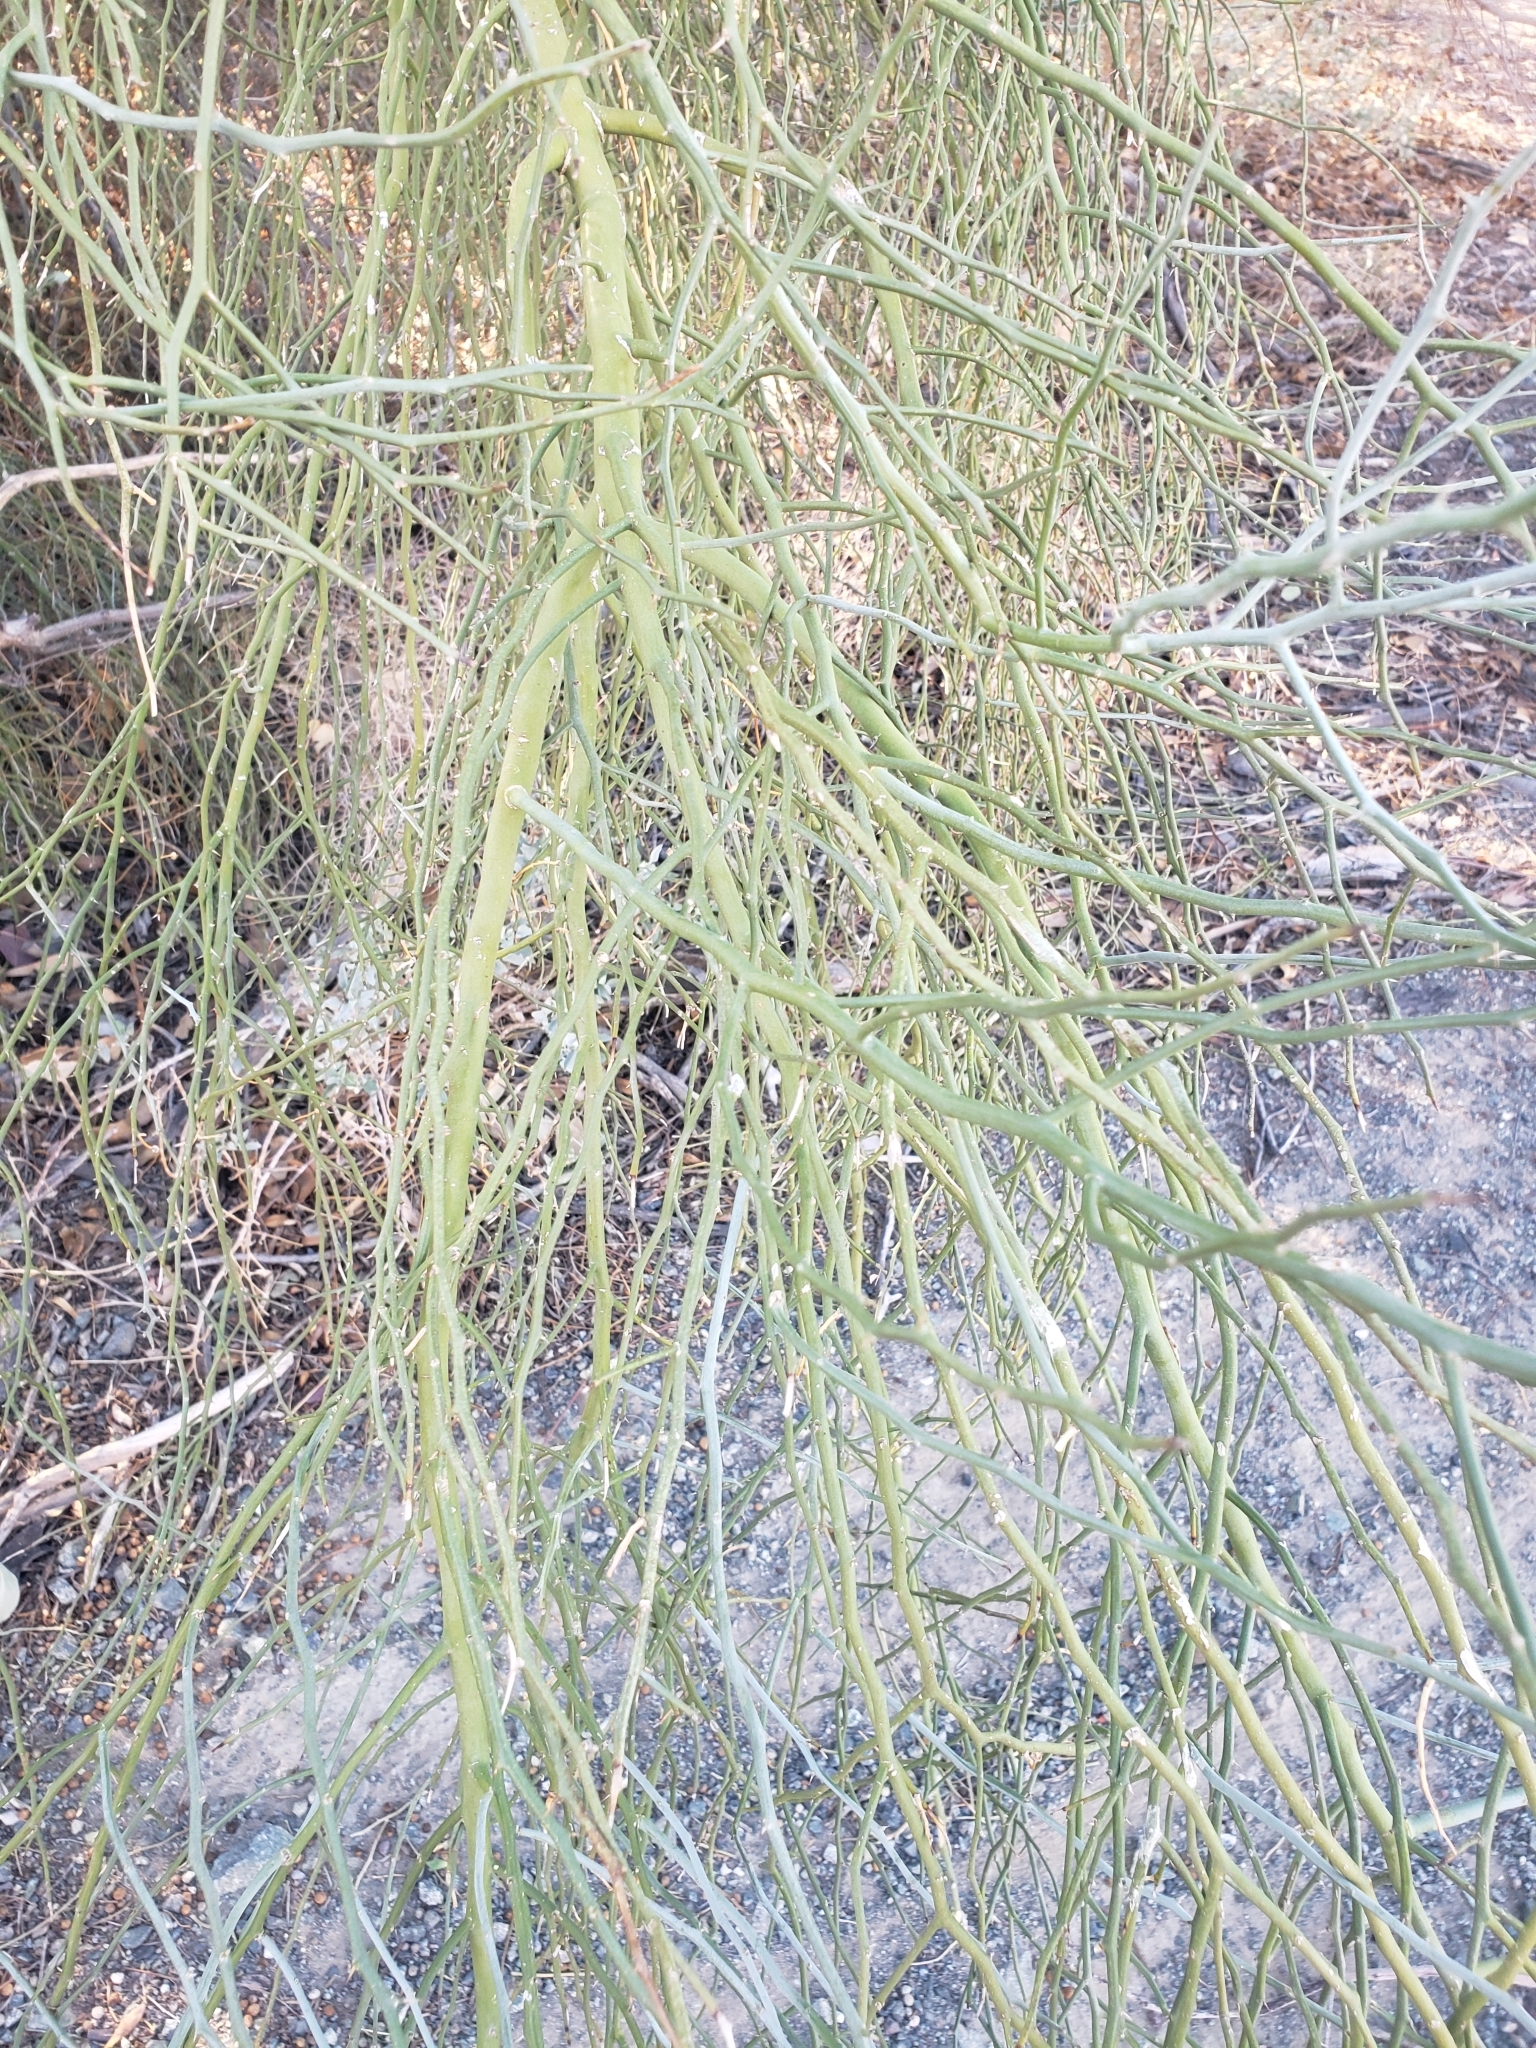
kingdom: Plantae
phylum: Tracheophyta
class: Magnoliopsida
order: Fabales
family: Fabaceae
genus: Parkinsonia
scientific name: Parkinsonia florida
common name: Blue paloverde
